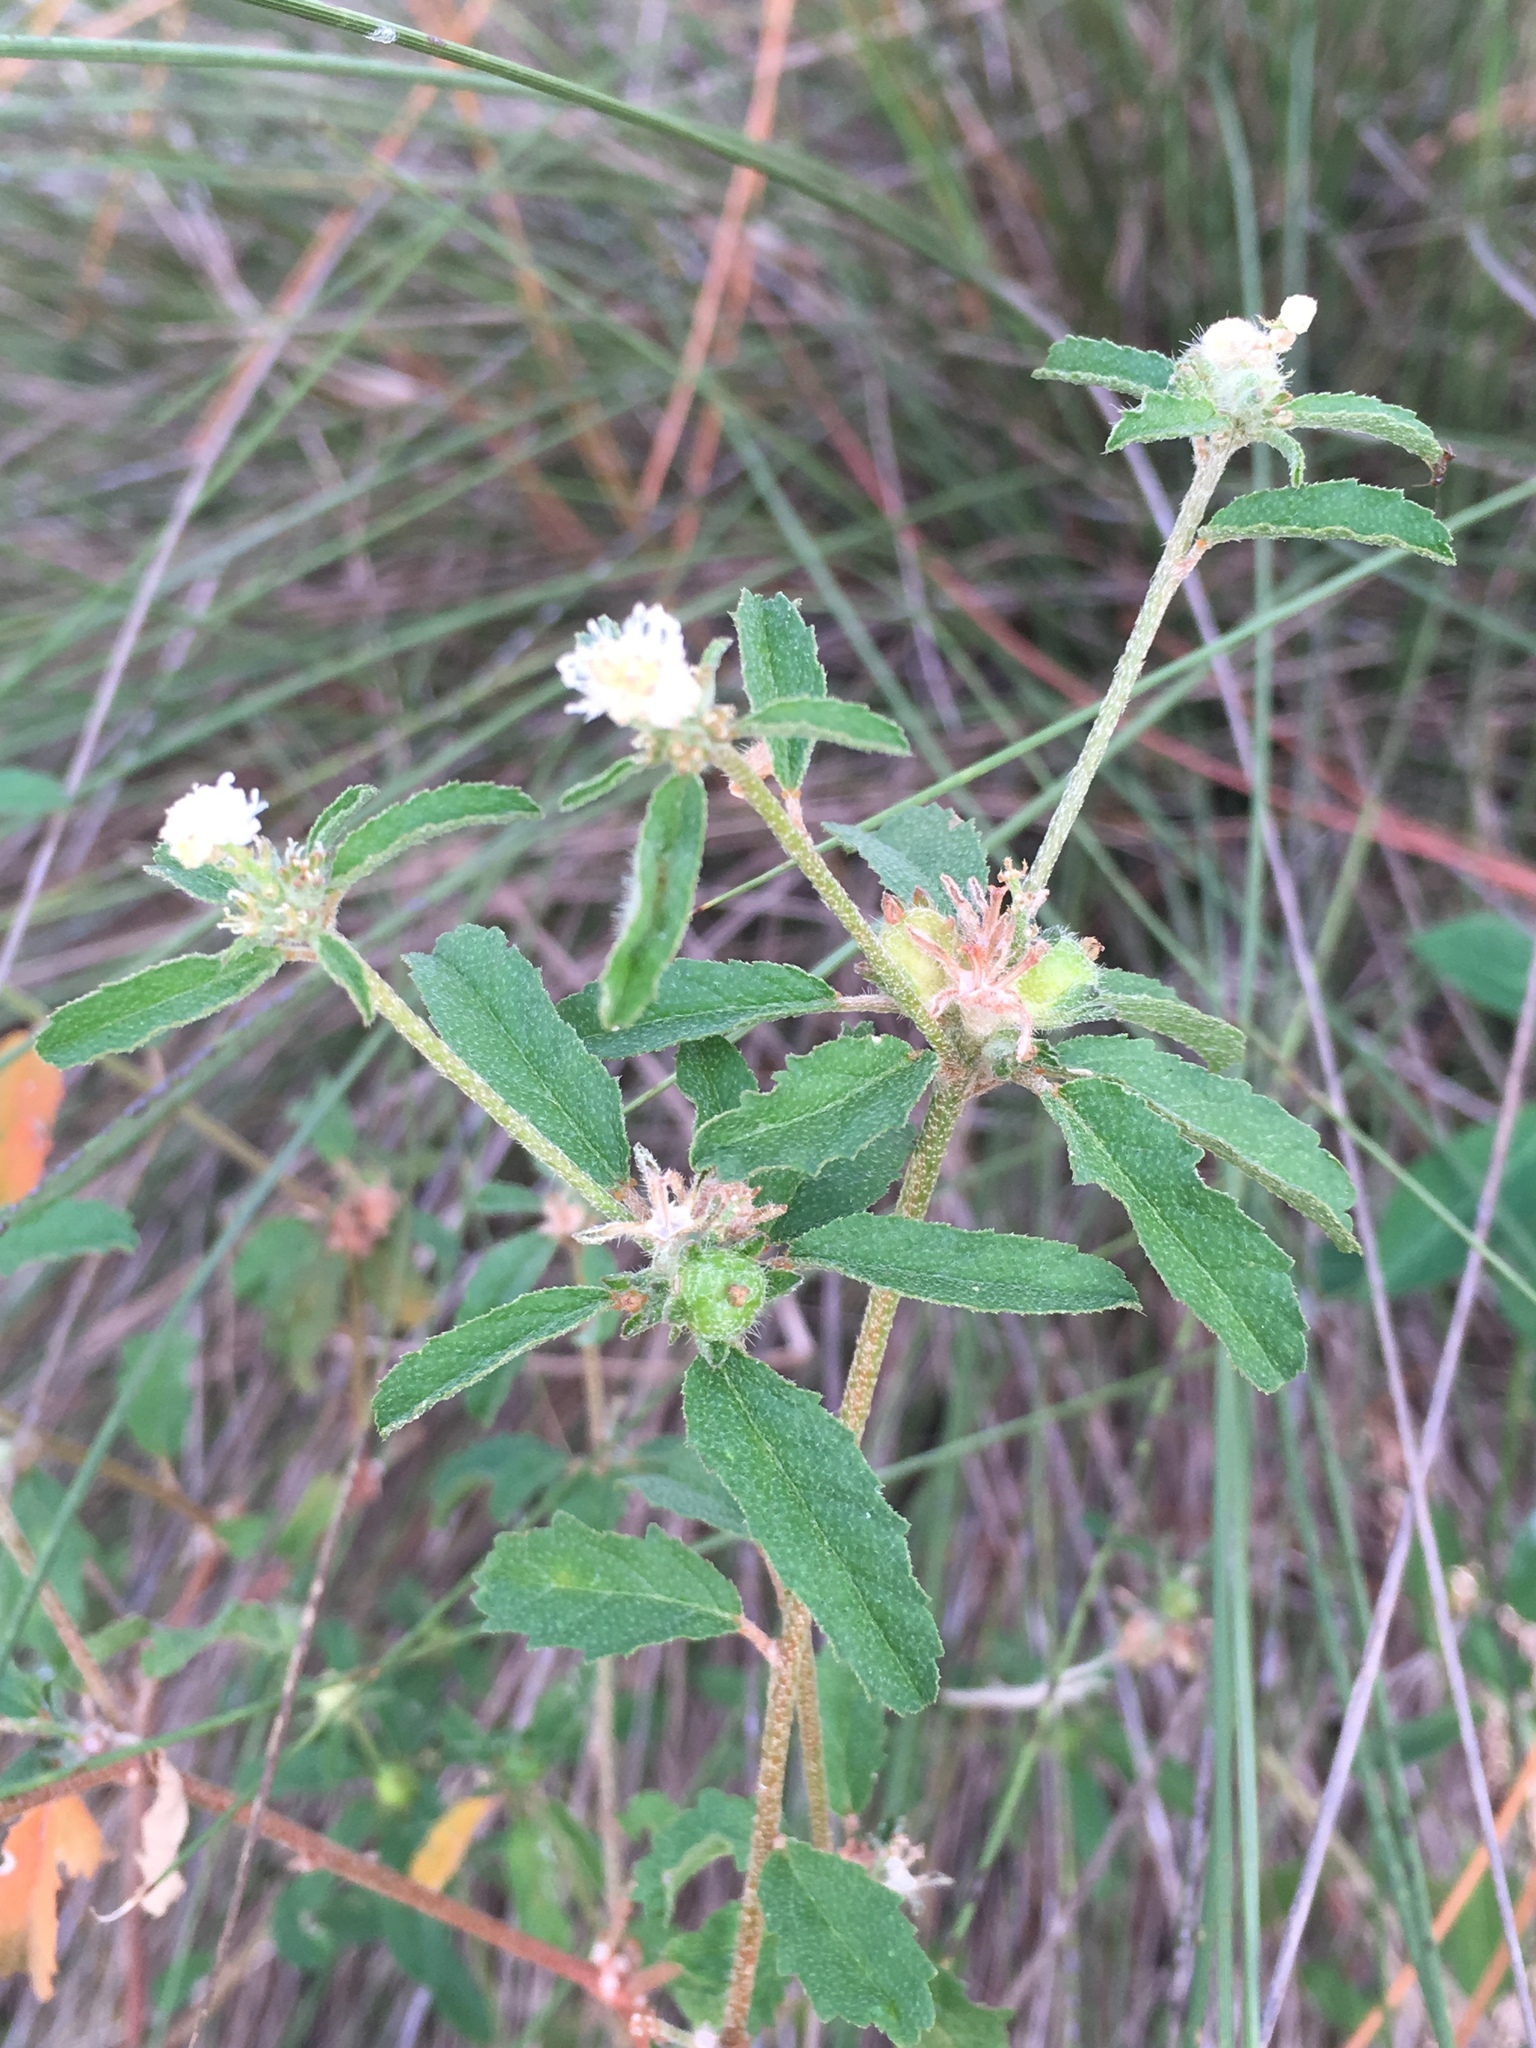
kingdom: Plantae
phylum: Tracheophyta
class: Magnoliopsida
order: Malpighiales
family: Euphorbiaceae
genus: Croton
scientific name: Croton glandulosus
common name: Tropic croton
